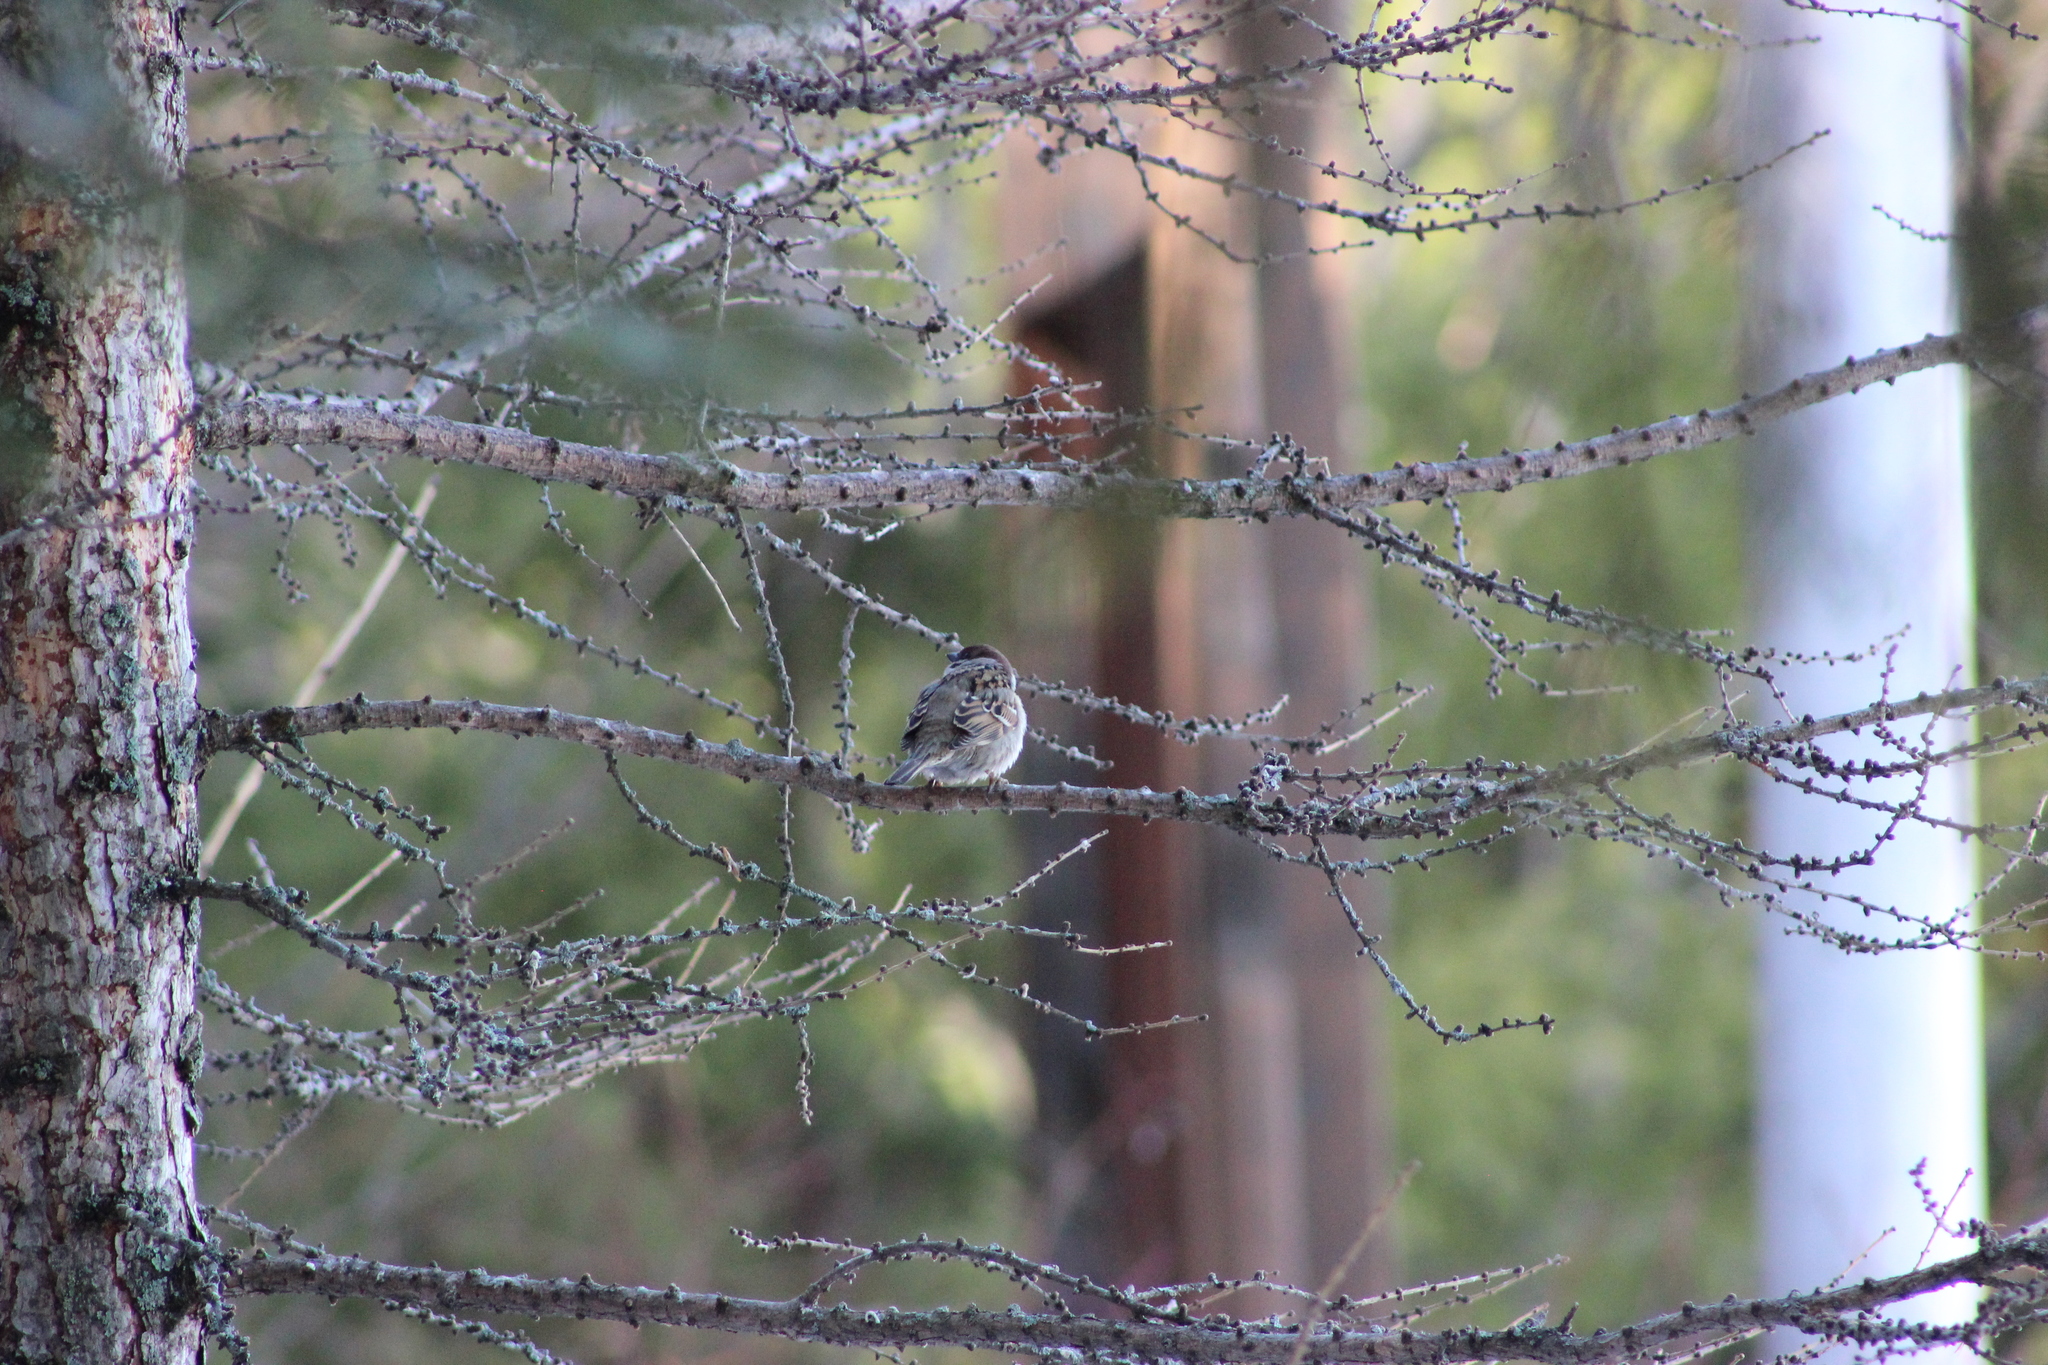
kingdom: Animalia
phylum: Chordata
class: Aves
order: Passeriformes
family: Passeridae
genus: Passer
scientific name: Passer montanus
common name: Eurasian tree sparrow
